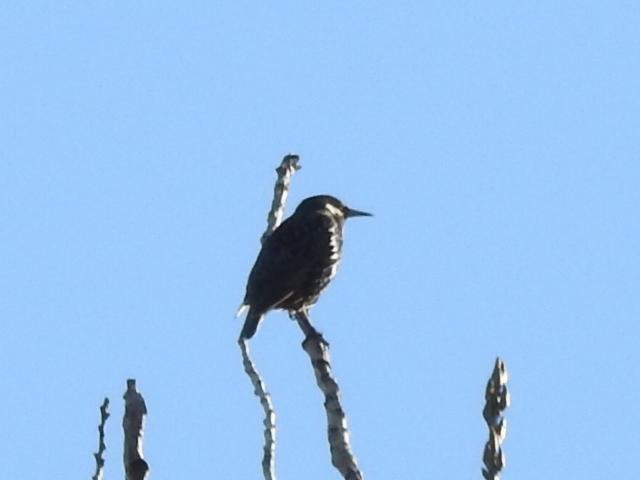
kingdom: Animalia
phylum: Chordata
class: Aves
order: Passeriformes
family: Sturnidae
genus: Sturnus
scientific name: Sturnus vulgaris
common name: Common starling
